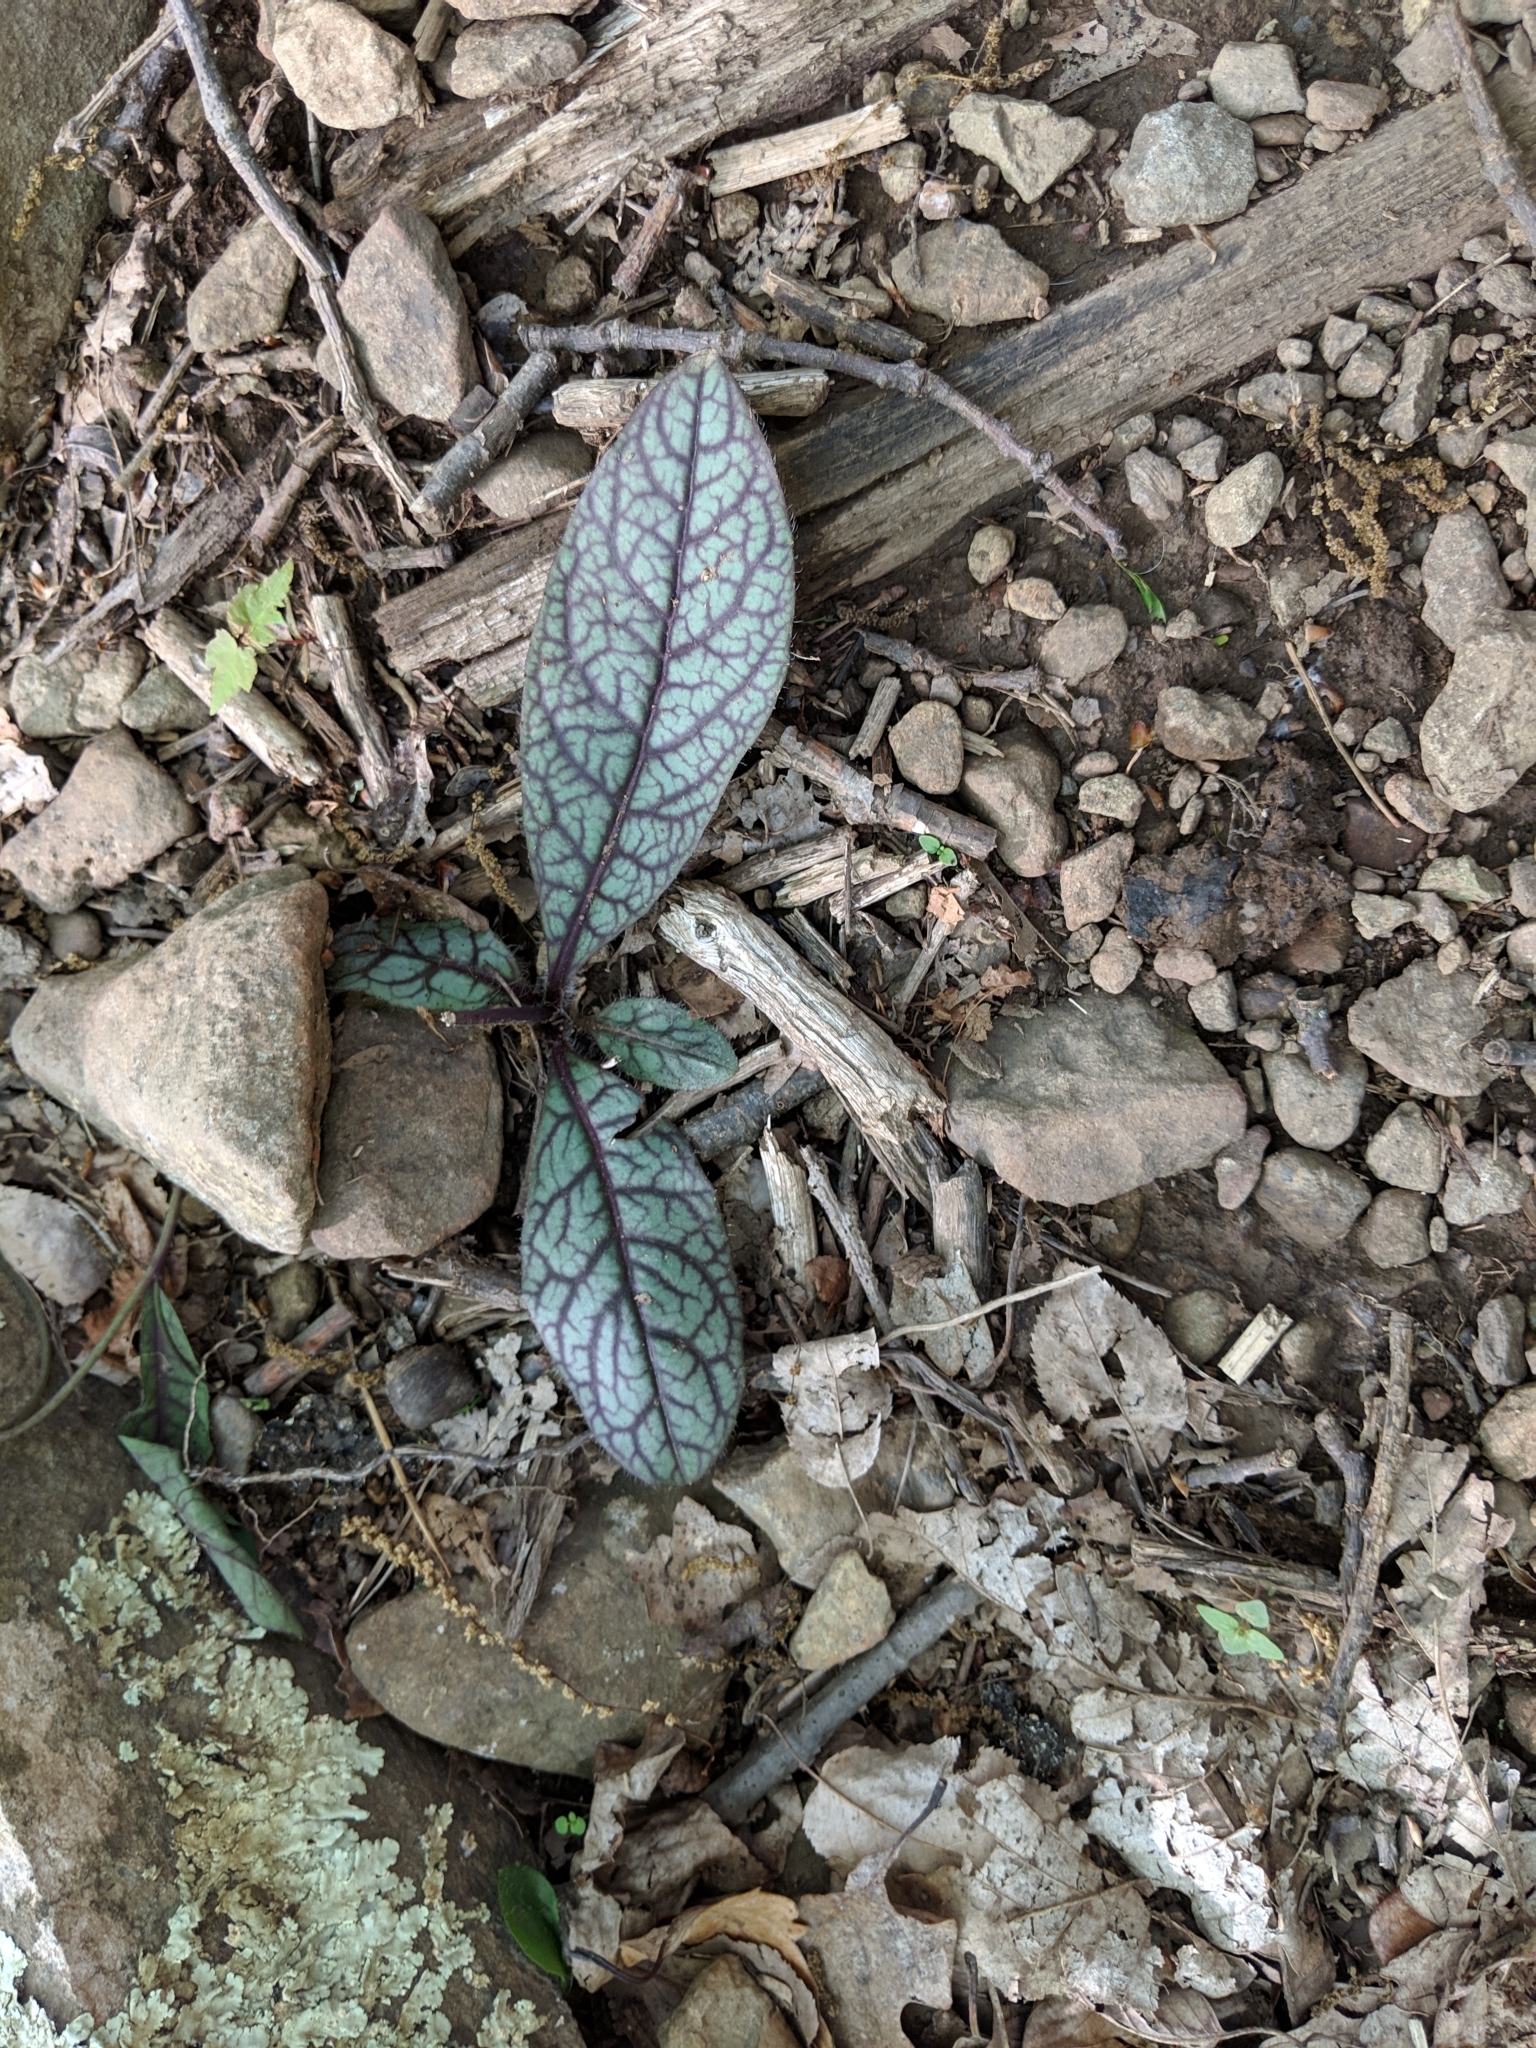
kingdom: Plantae
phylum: Tracheophyta
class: Magnoliopsida
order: Asterales
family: Asteraceae
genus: Hieracium
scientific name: Hieracium venosum
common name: Rattlesnake hawkweed
